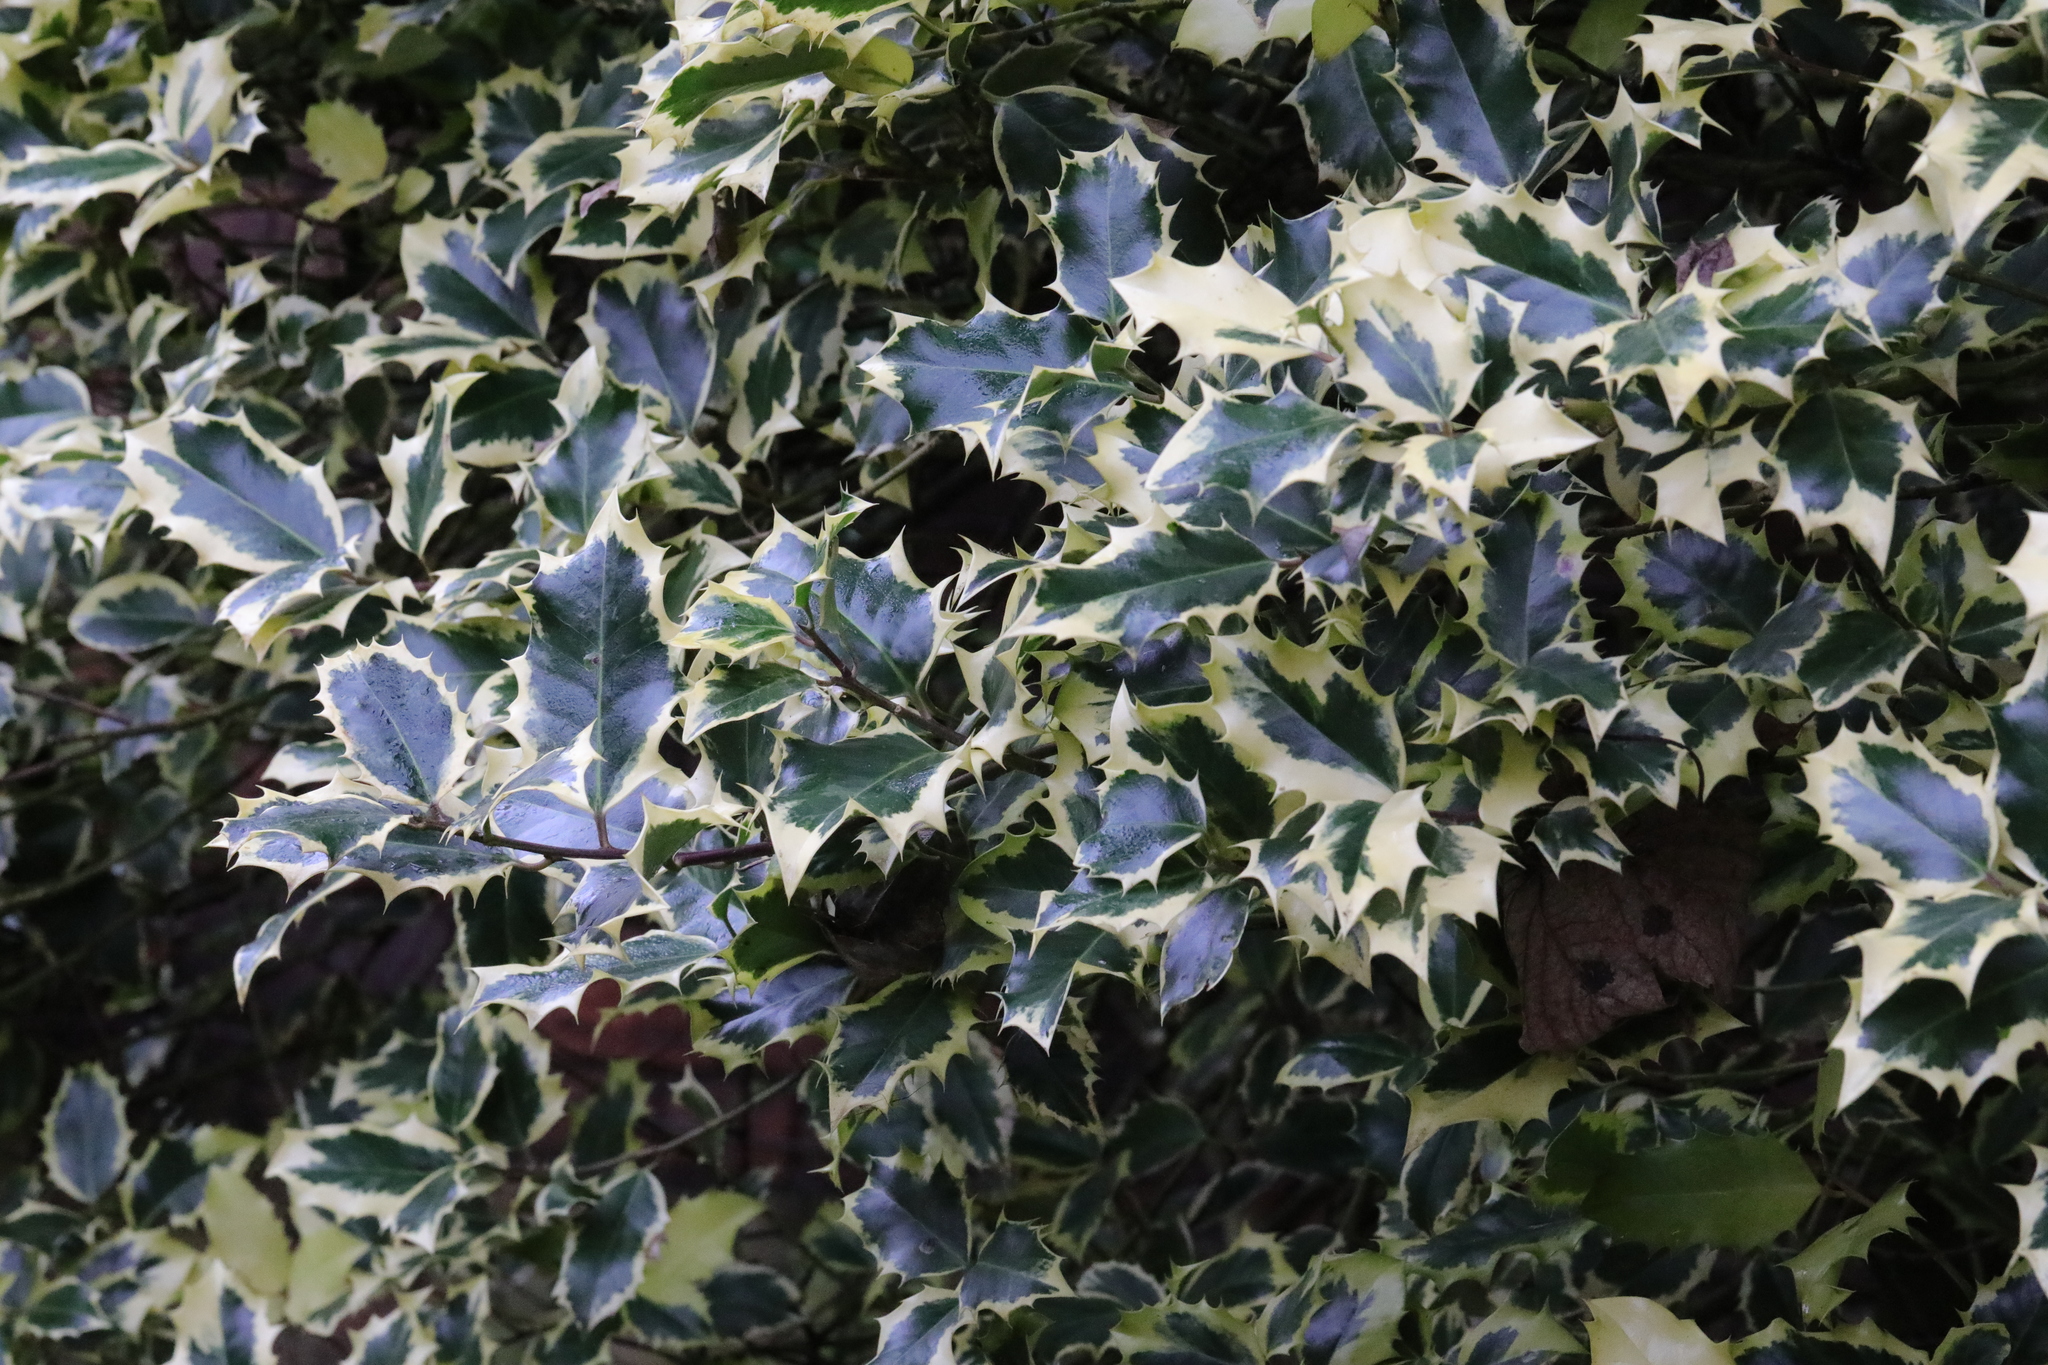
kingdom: Plantae
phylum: Tracheophyta
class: Magnoliopsida
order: Aquifoliales
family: Aquifoliaceae
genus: Ilex
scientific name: Ilex aquifolium
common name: English holly
